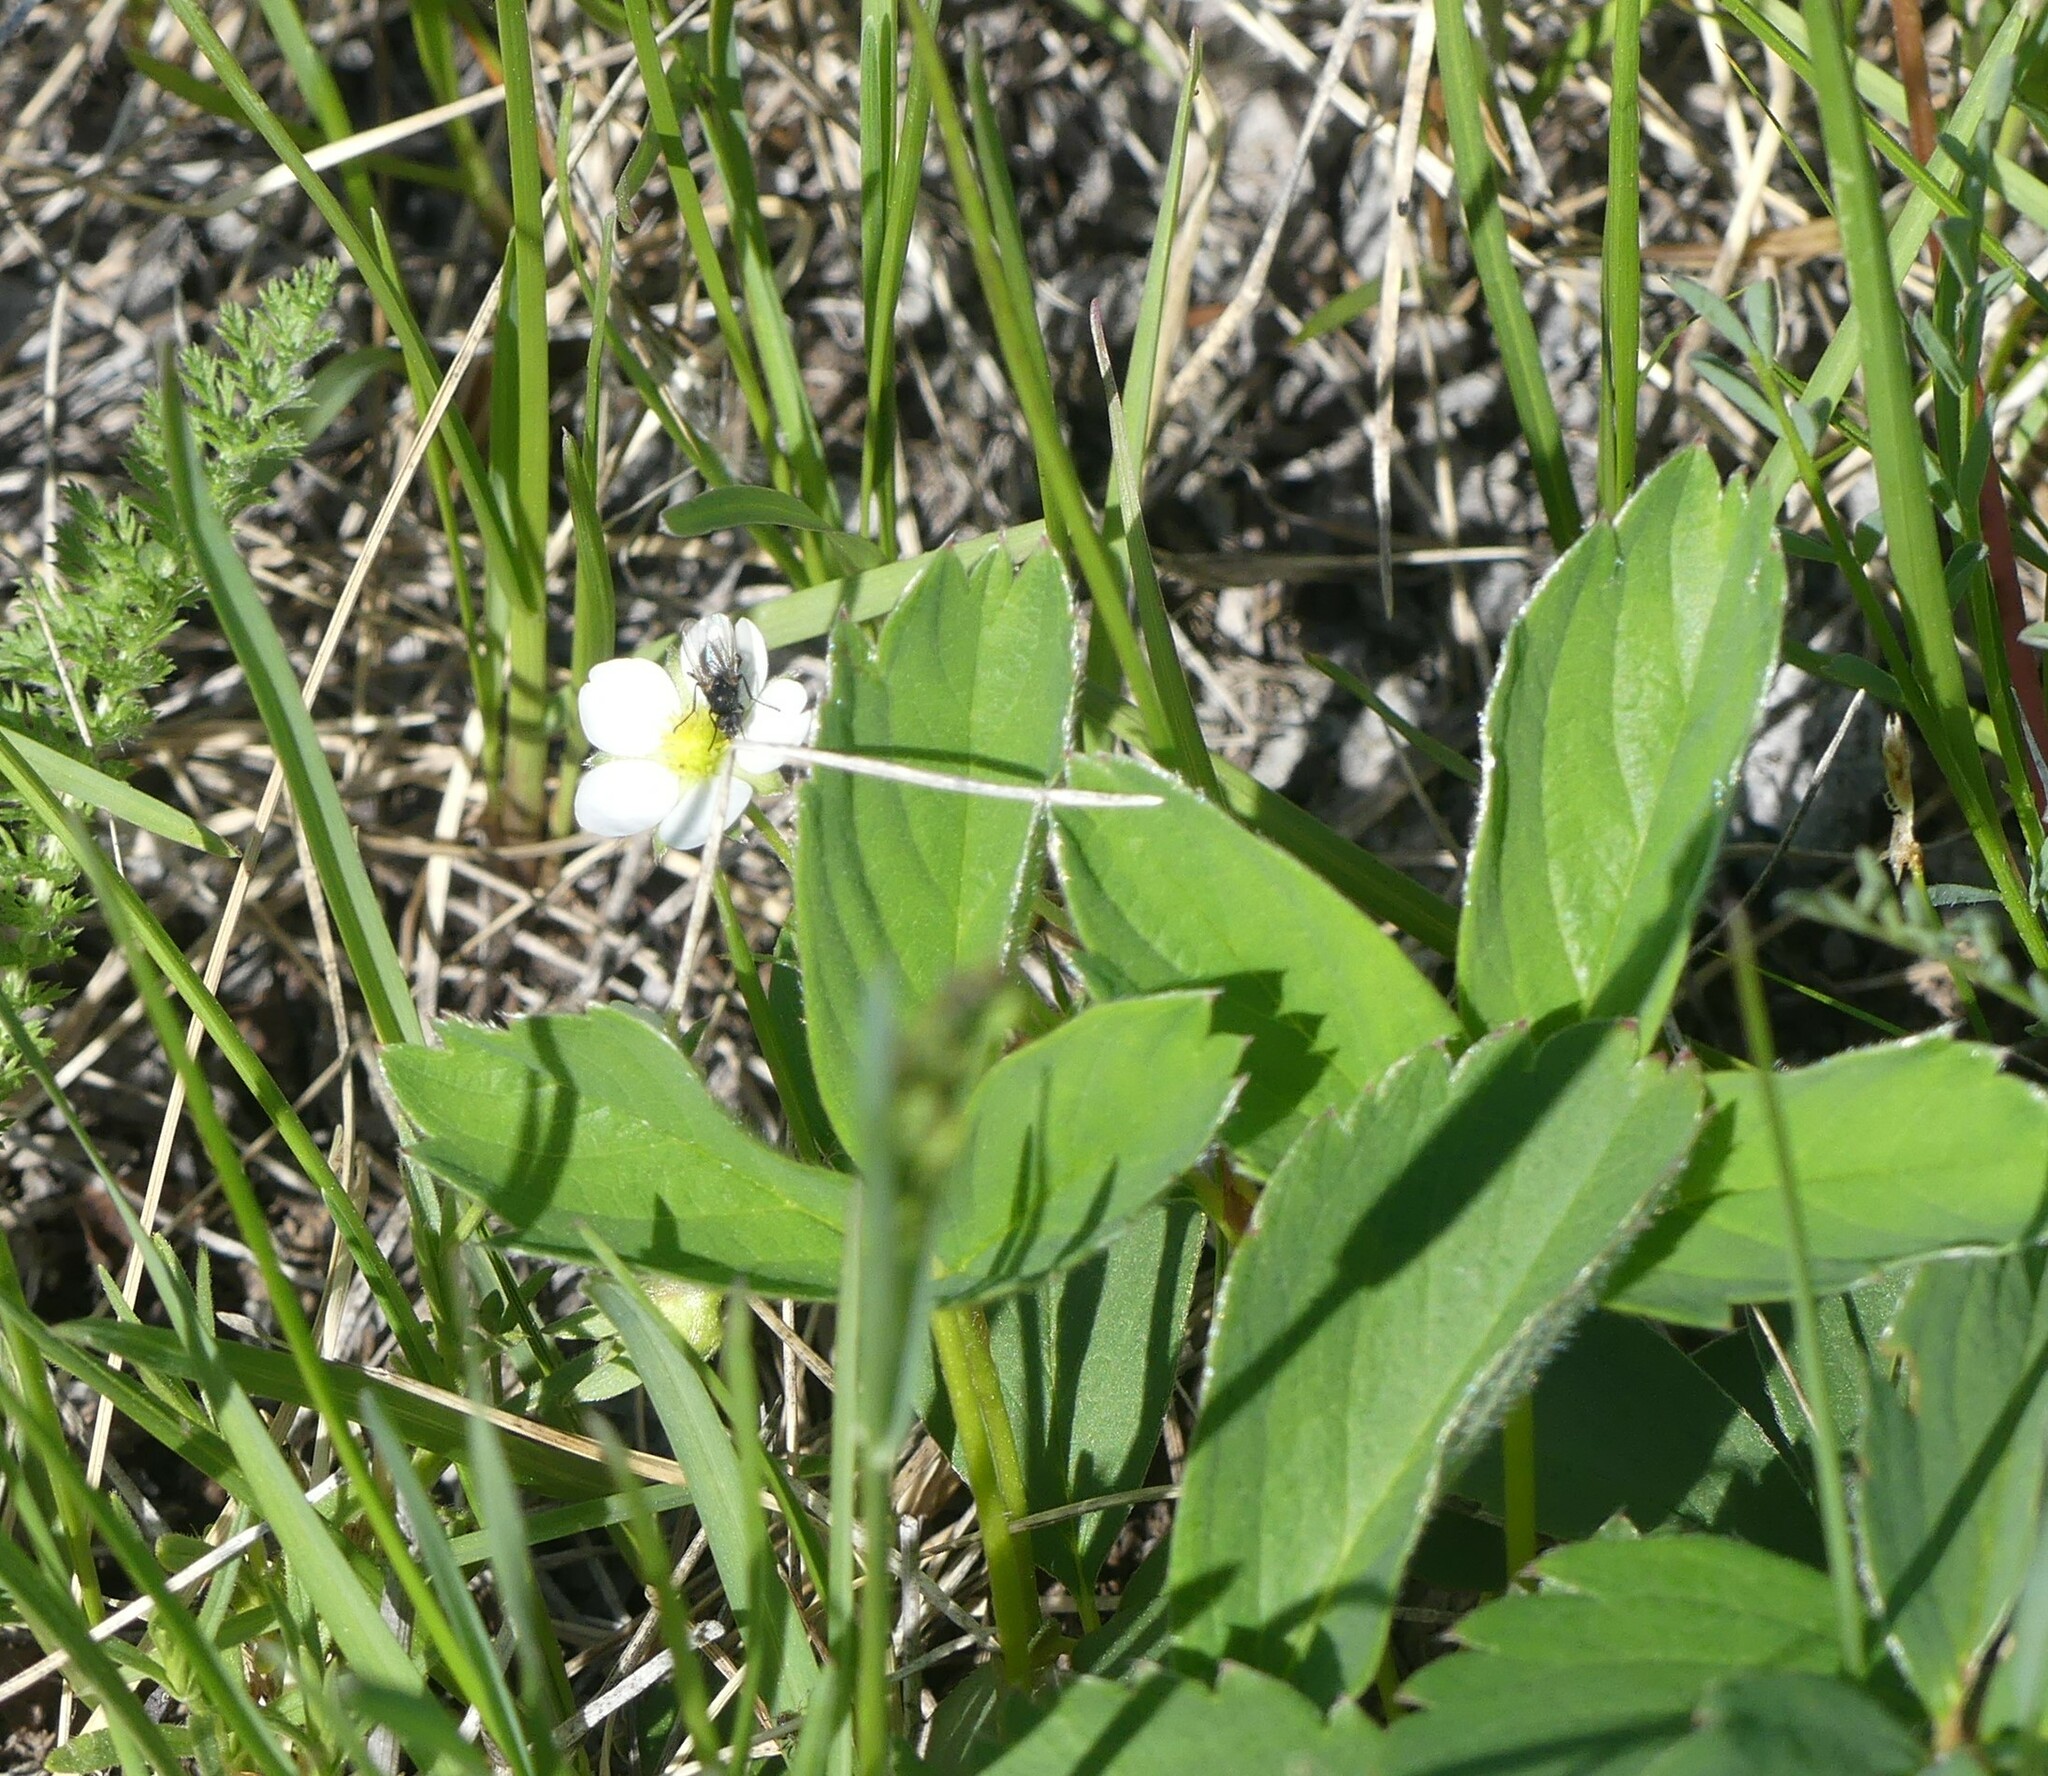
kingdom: Plantae
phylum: Tracheophyta
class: Magnoliopsida
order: Rosales
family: Rosaceae
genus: Fragaria
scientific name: Fragaria virginiana
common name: Thickleaved wild strawberry
